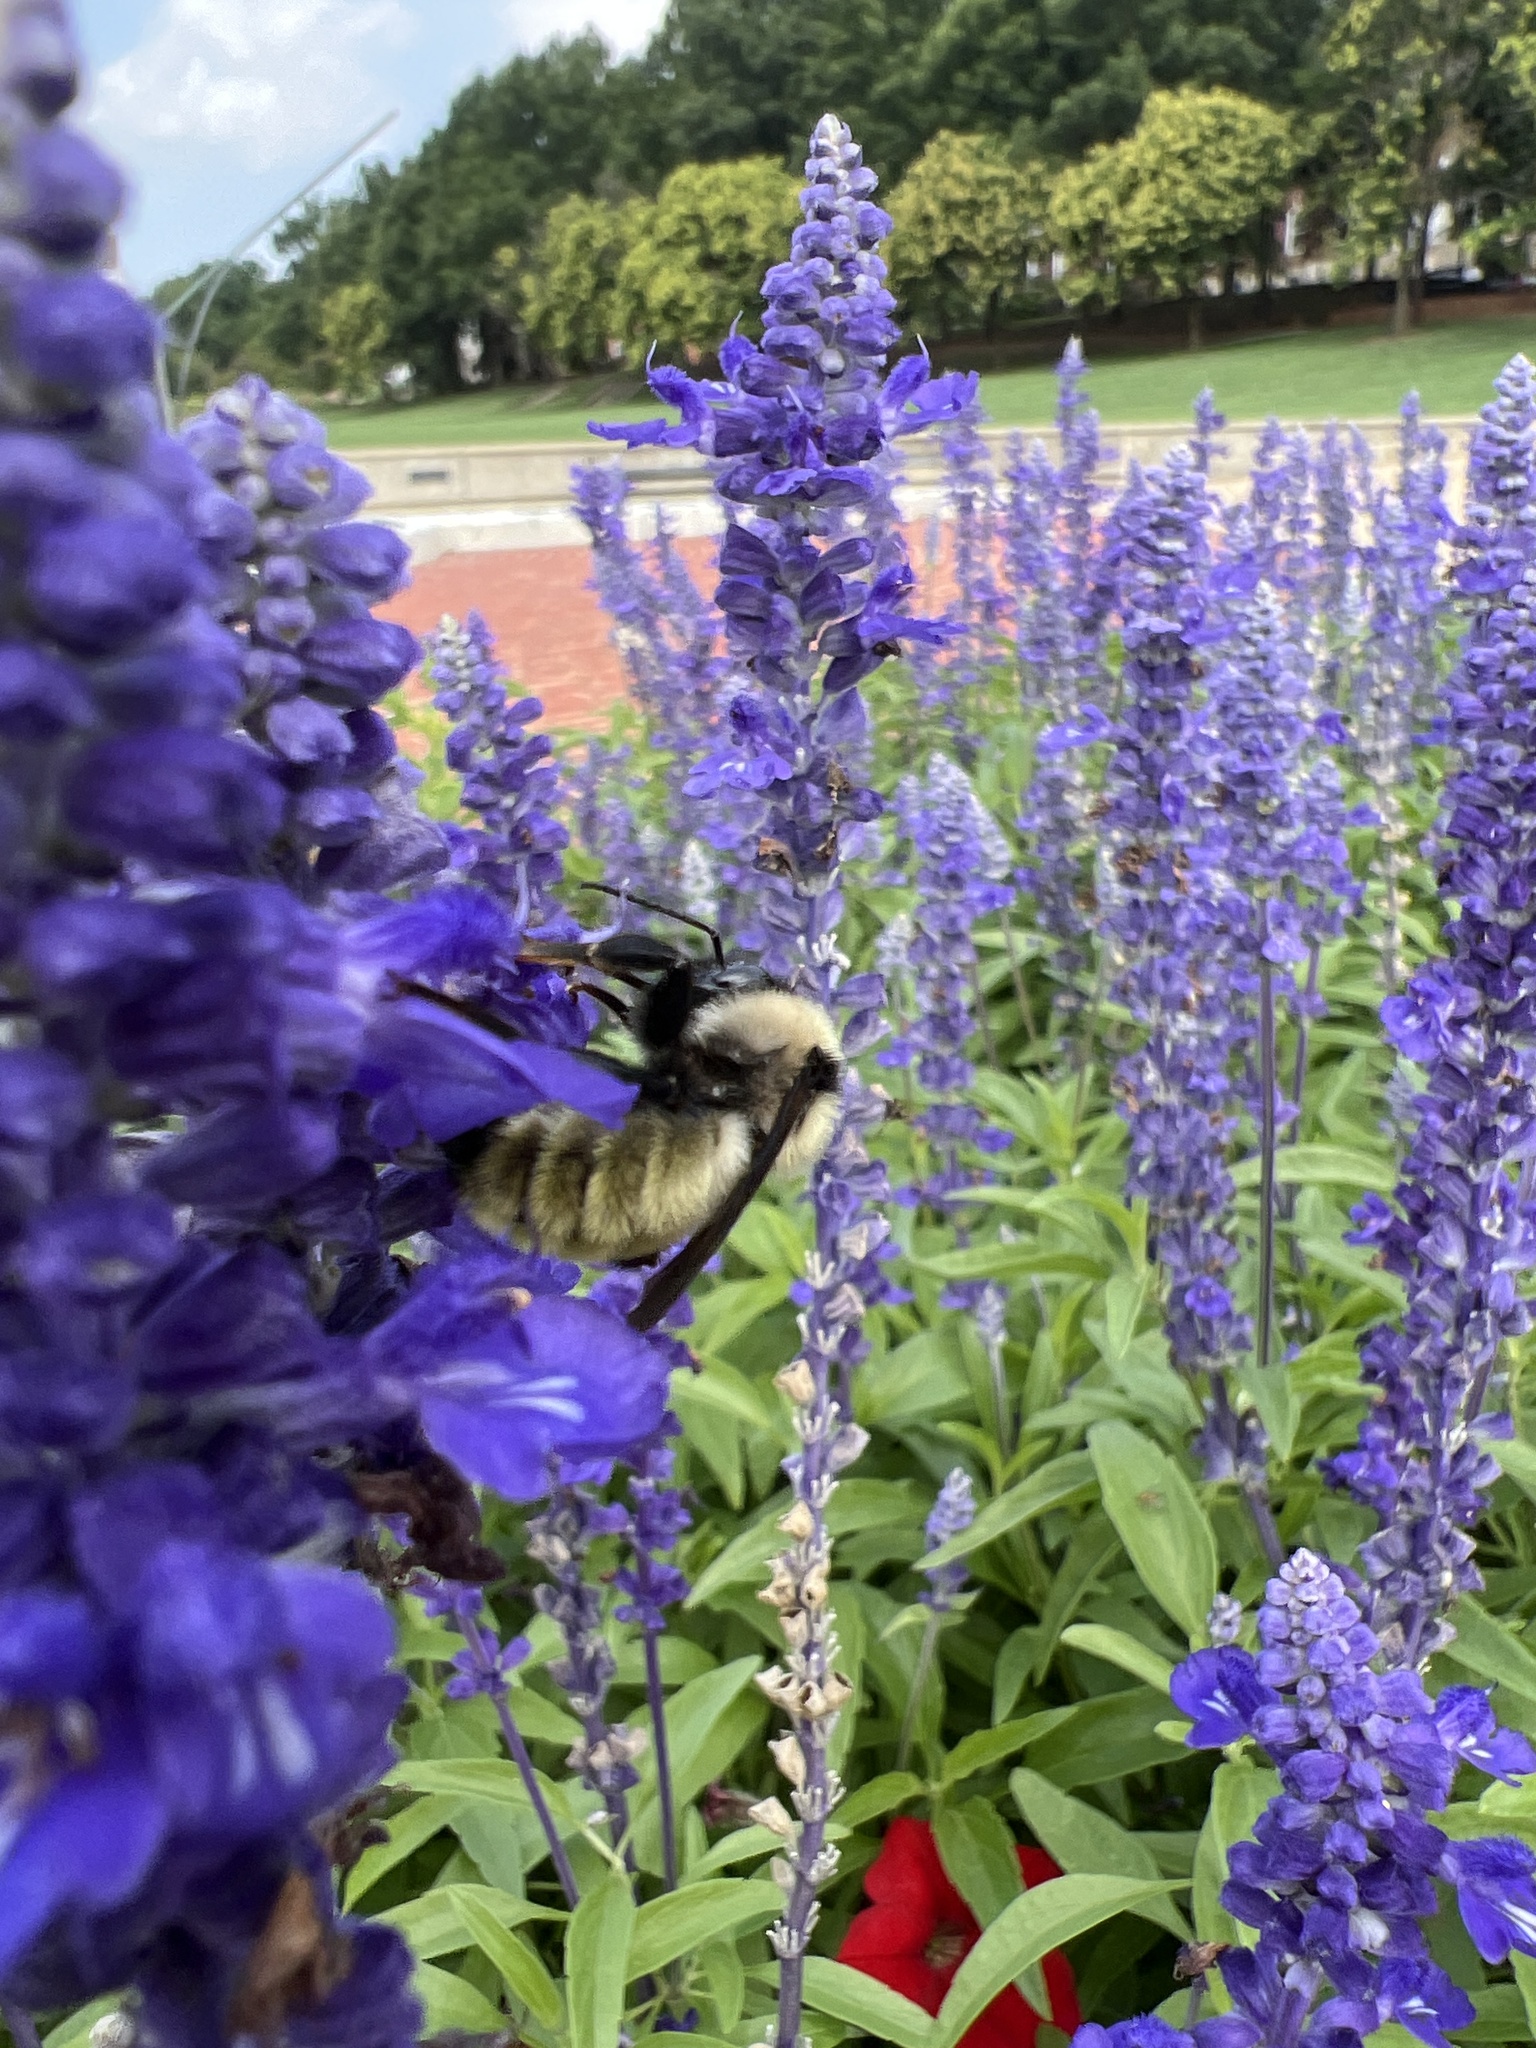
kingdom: Animalia
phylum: Arthropoda
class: Insecta
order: Hymenoptera
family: Apidae
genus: Bombus
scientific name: Bombus fervidus
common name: Yellow bumble bee
